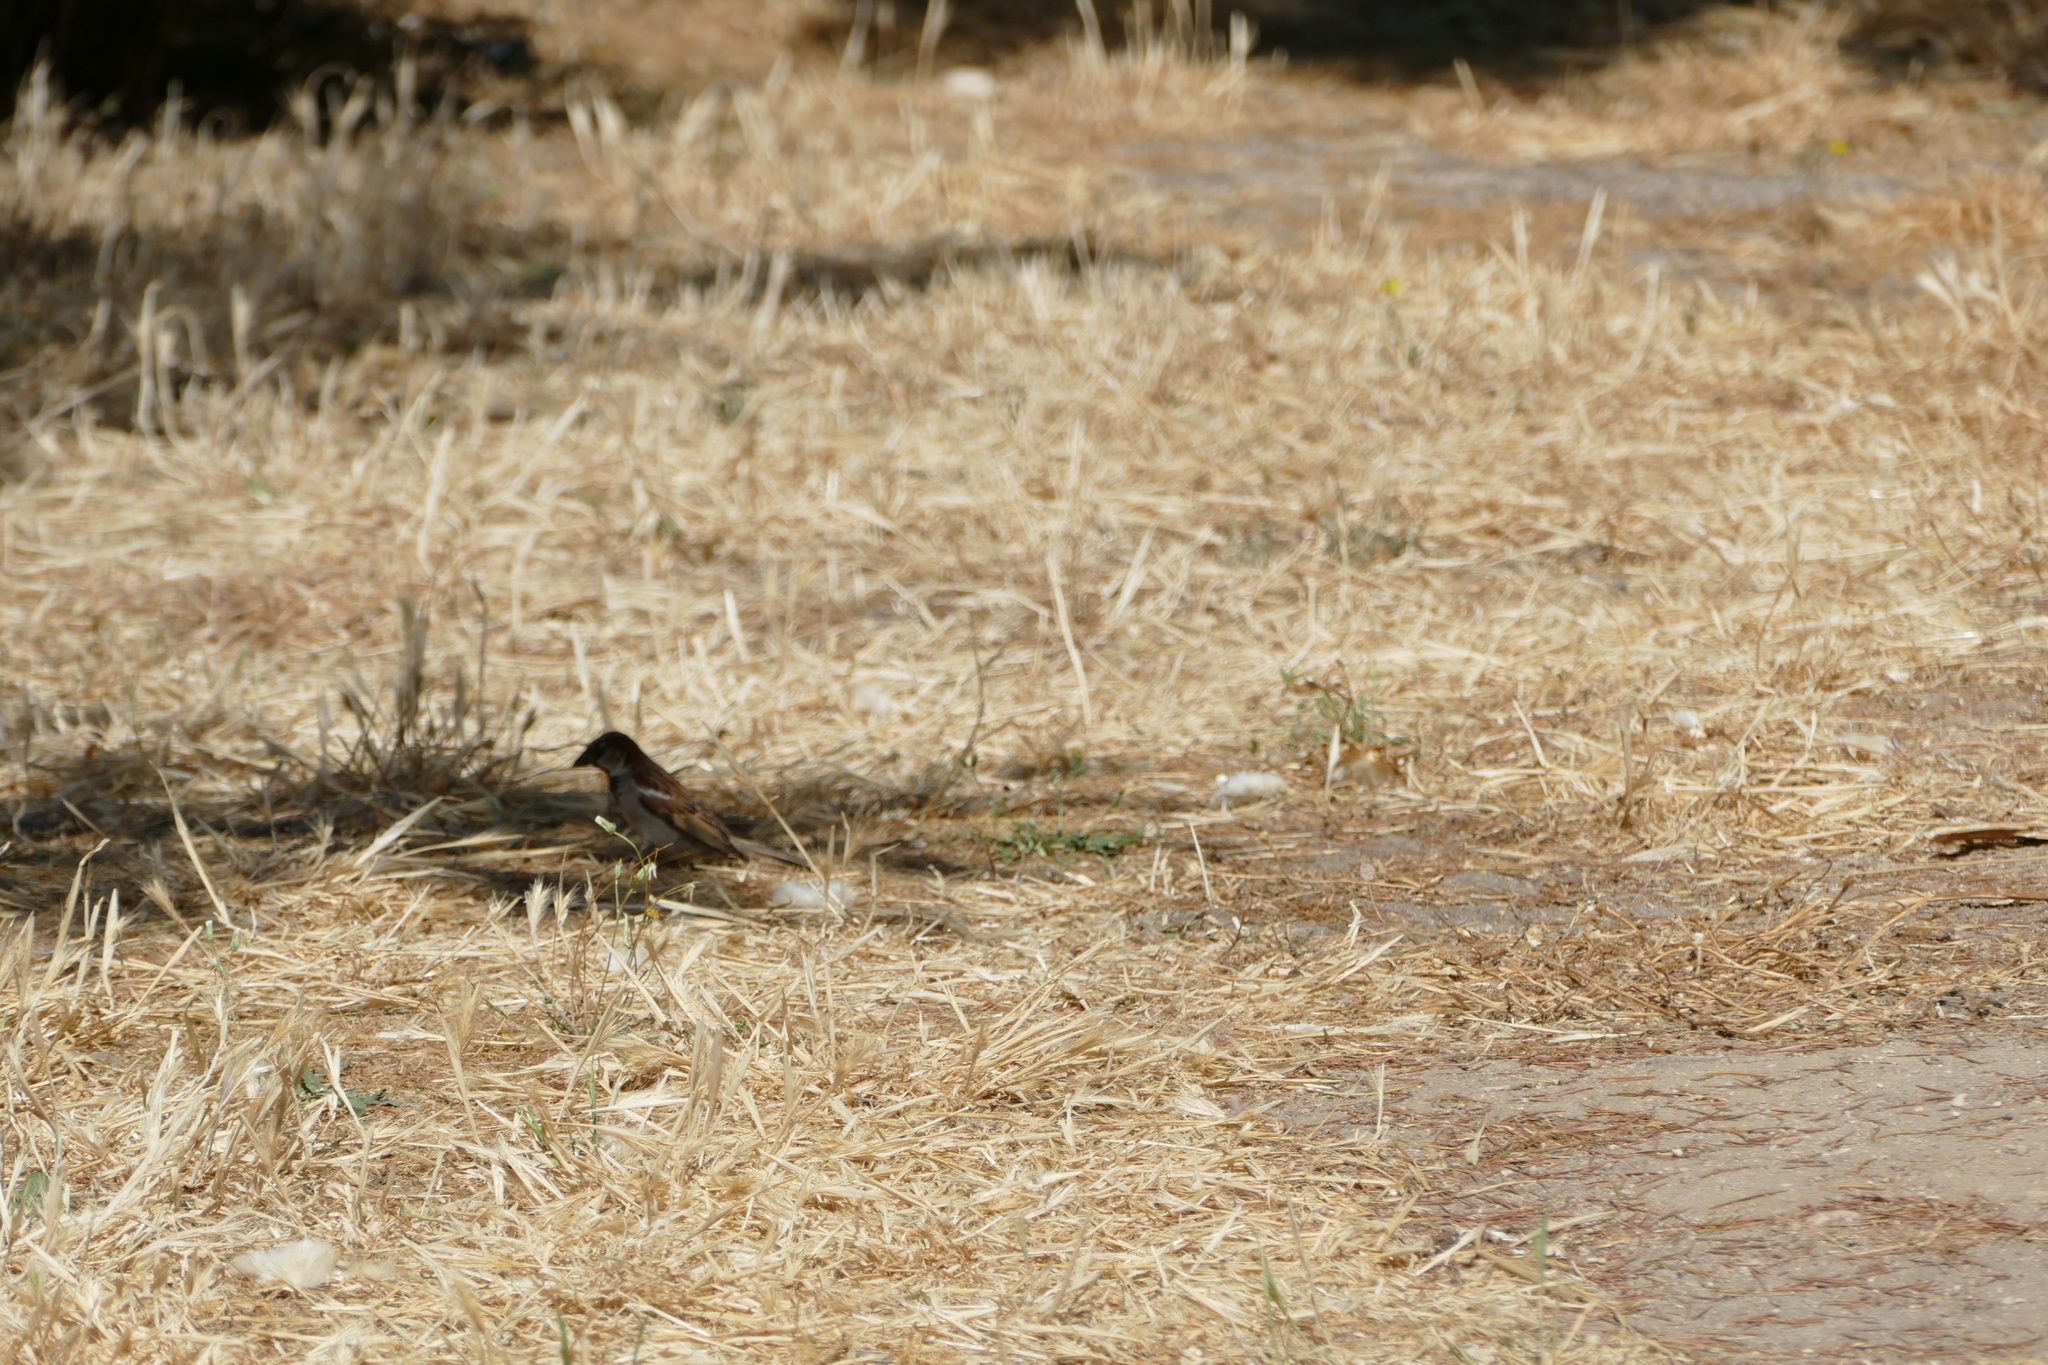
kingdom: Animalia
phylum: Chordata
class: Aves
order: Passeriformes
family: Passeridae
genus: Passer
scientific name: Passer domesticus
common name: House sparrow
